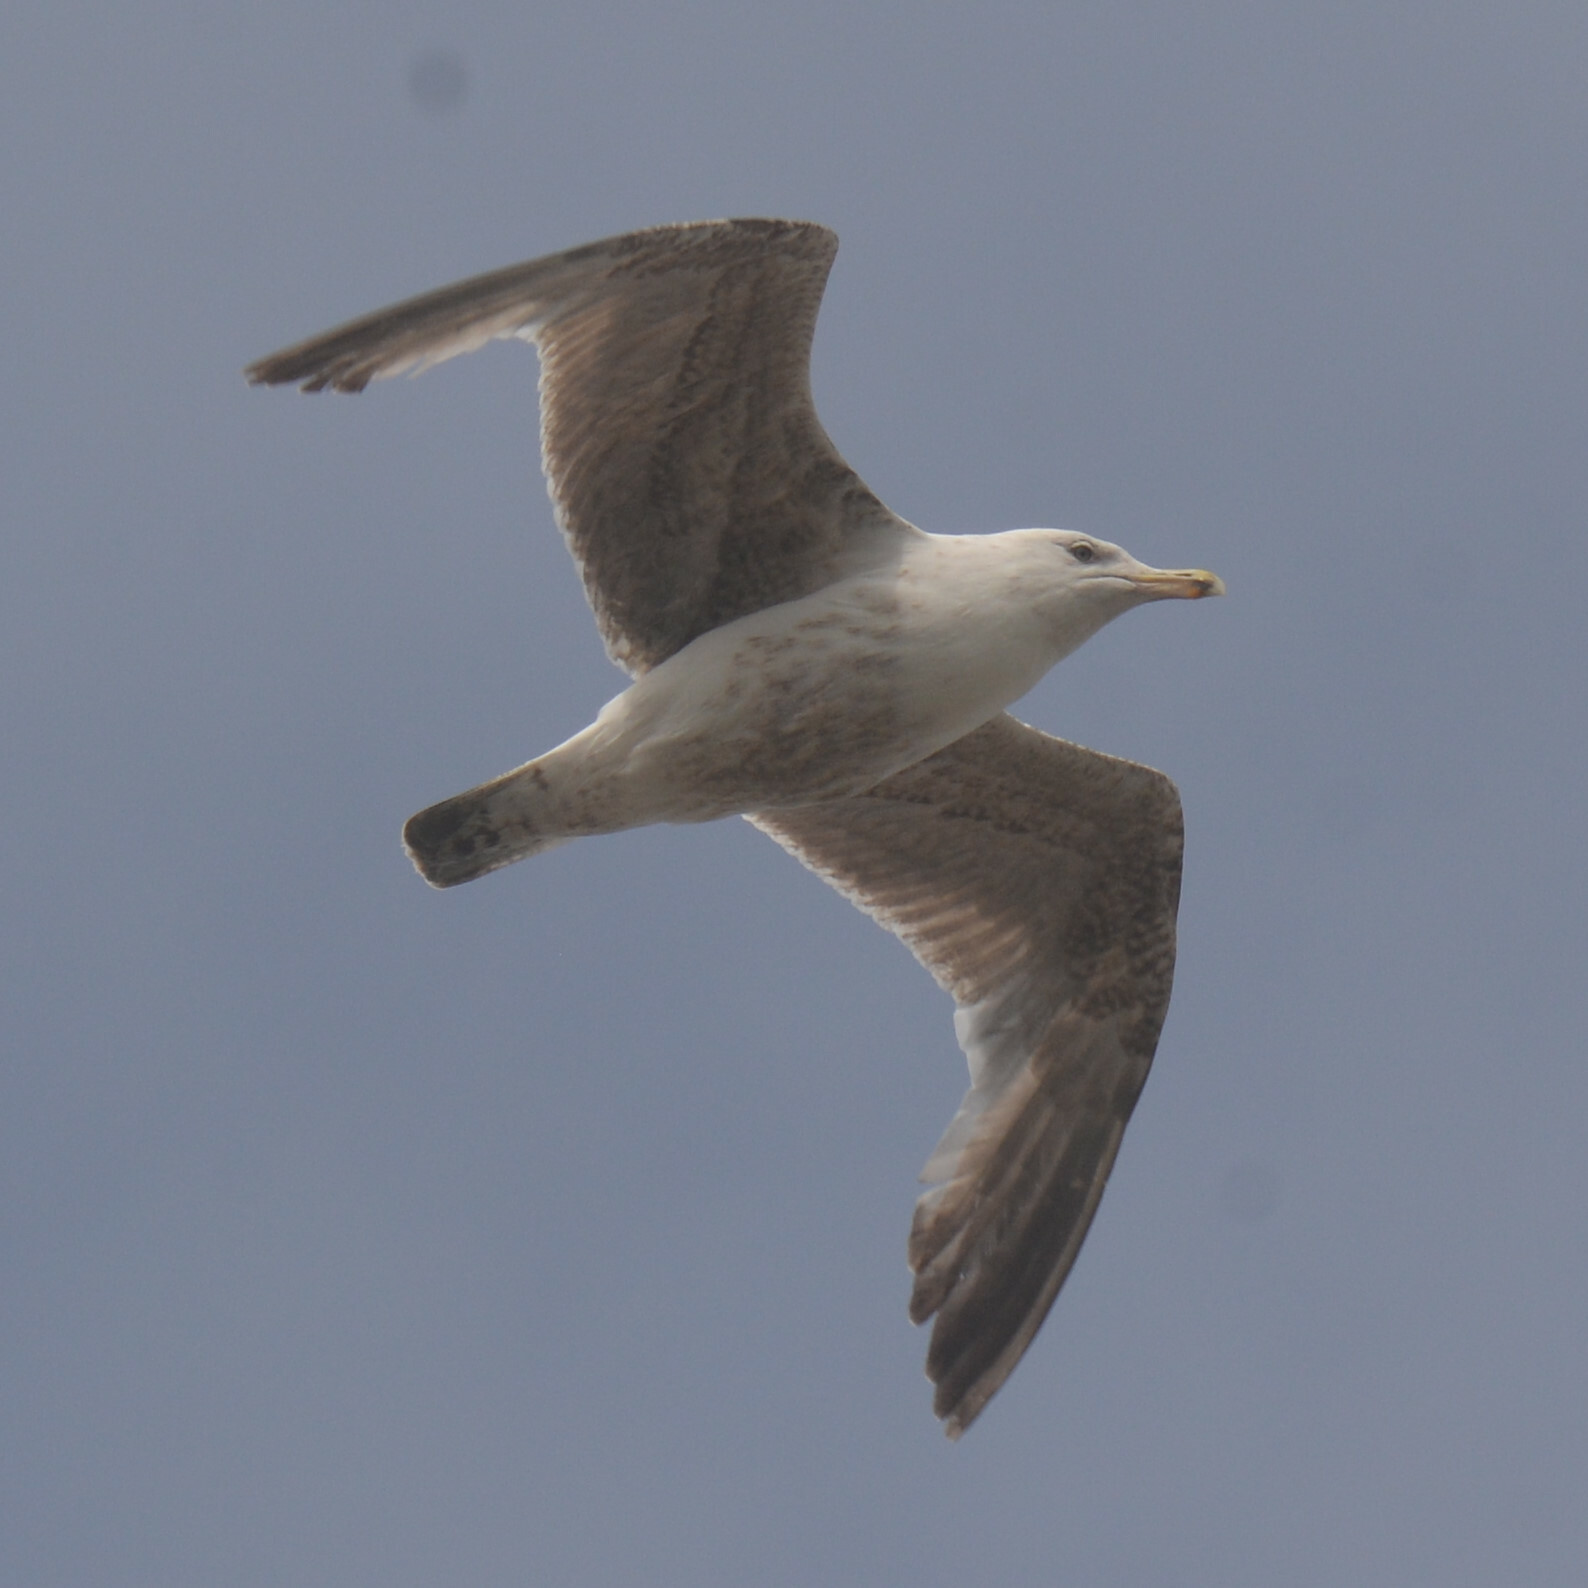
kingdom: Animalia
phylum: Chordata
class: Aves
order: Charadriiformes
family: Laridae
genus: Larus
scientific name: Larus argentatus
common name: Herring gull
